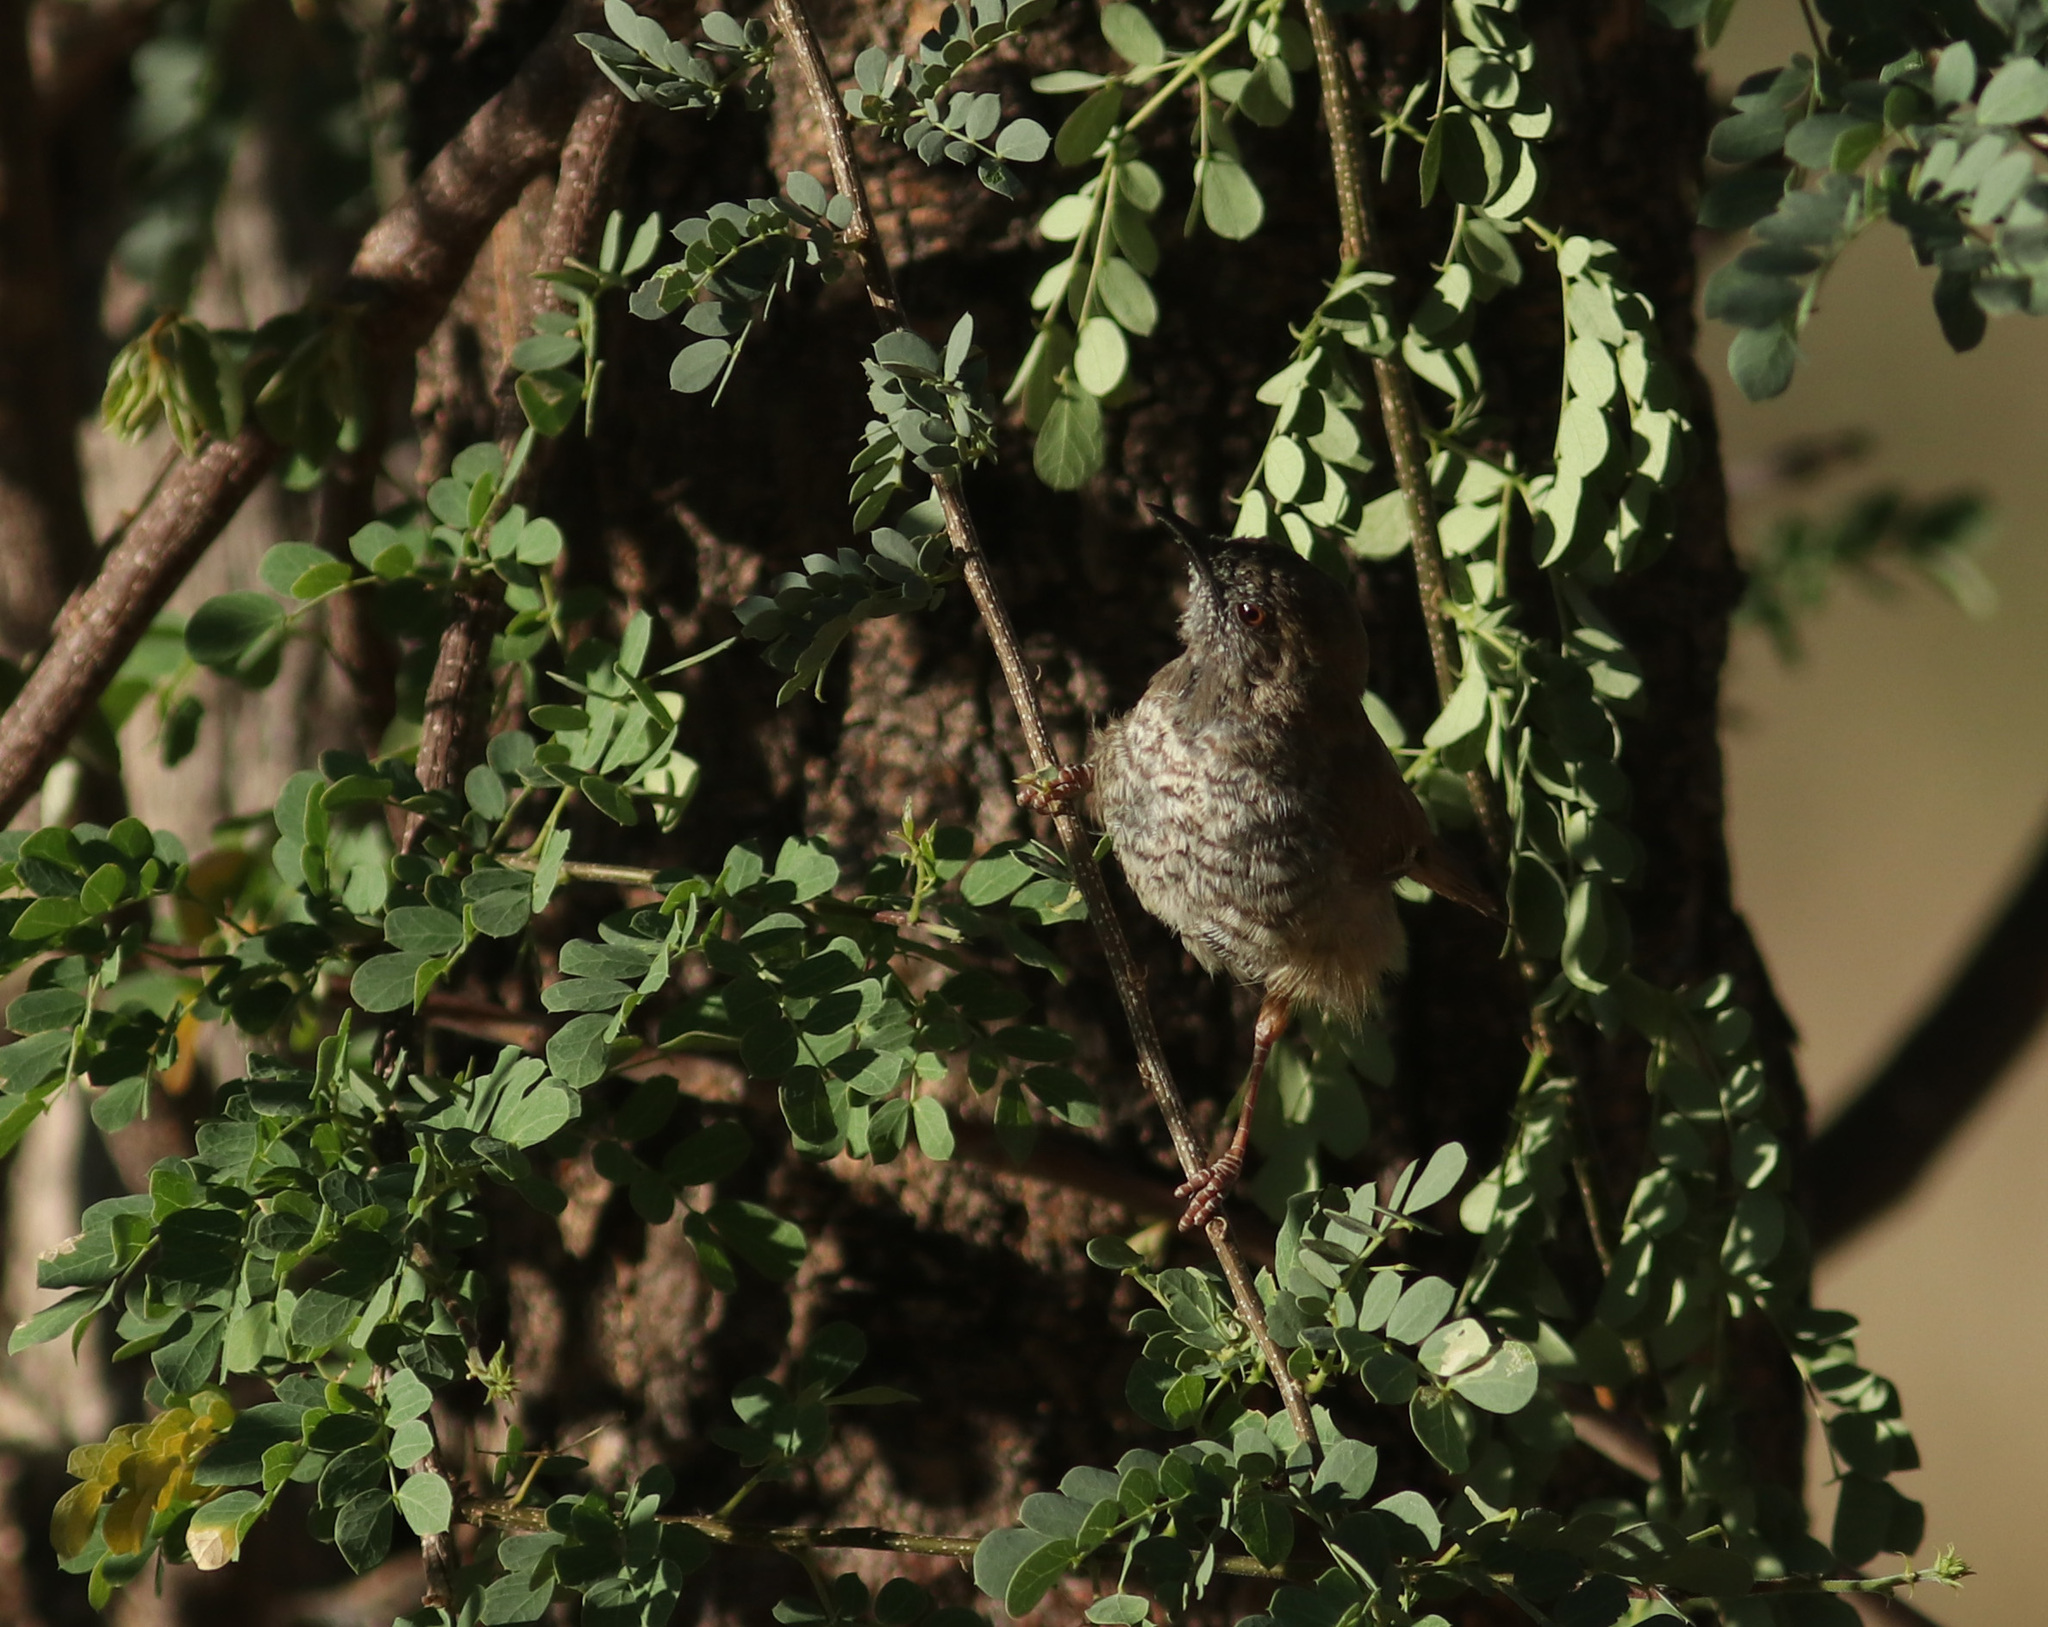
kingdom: Animalia
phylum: Chordata
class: Aves
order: Passeriformes
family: Cisticolidae
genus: Calamonastes
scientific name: Calamonastes fasciolatus
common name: Barred wren-warbler
